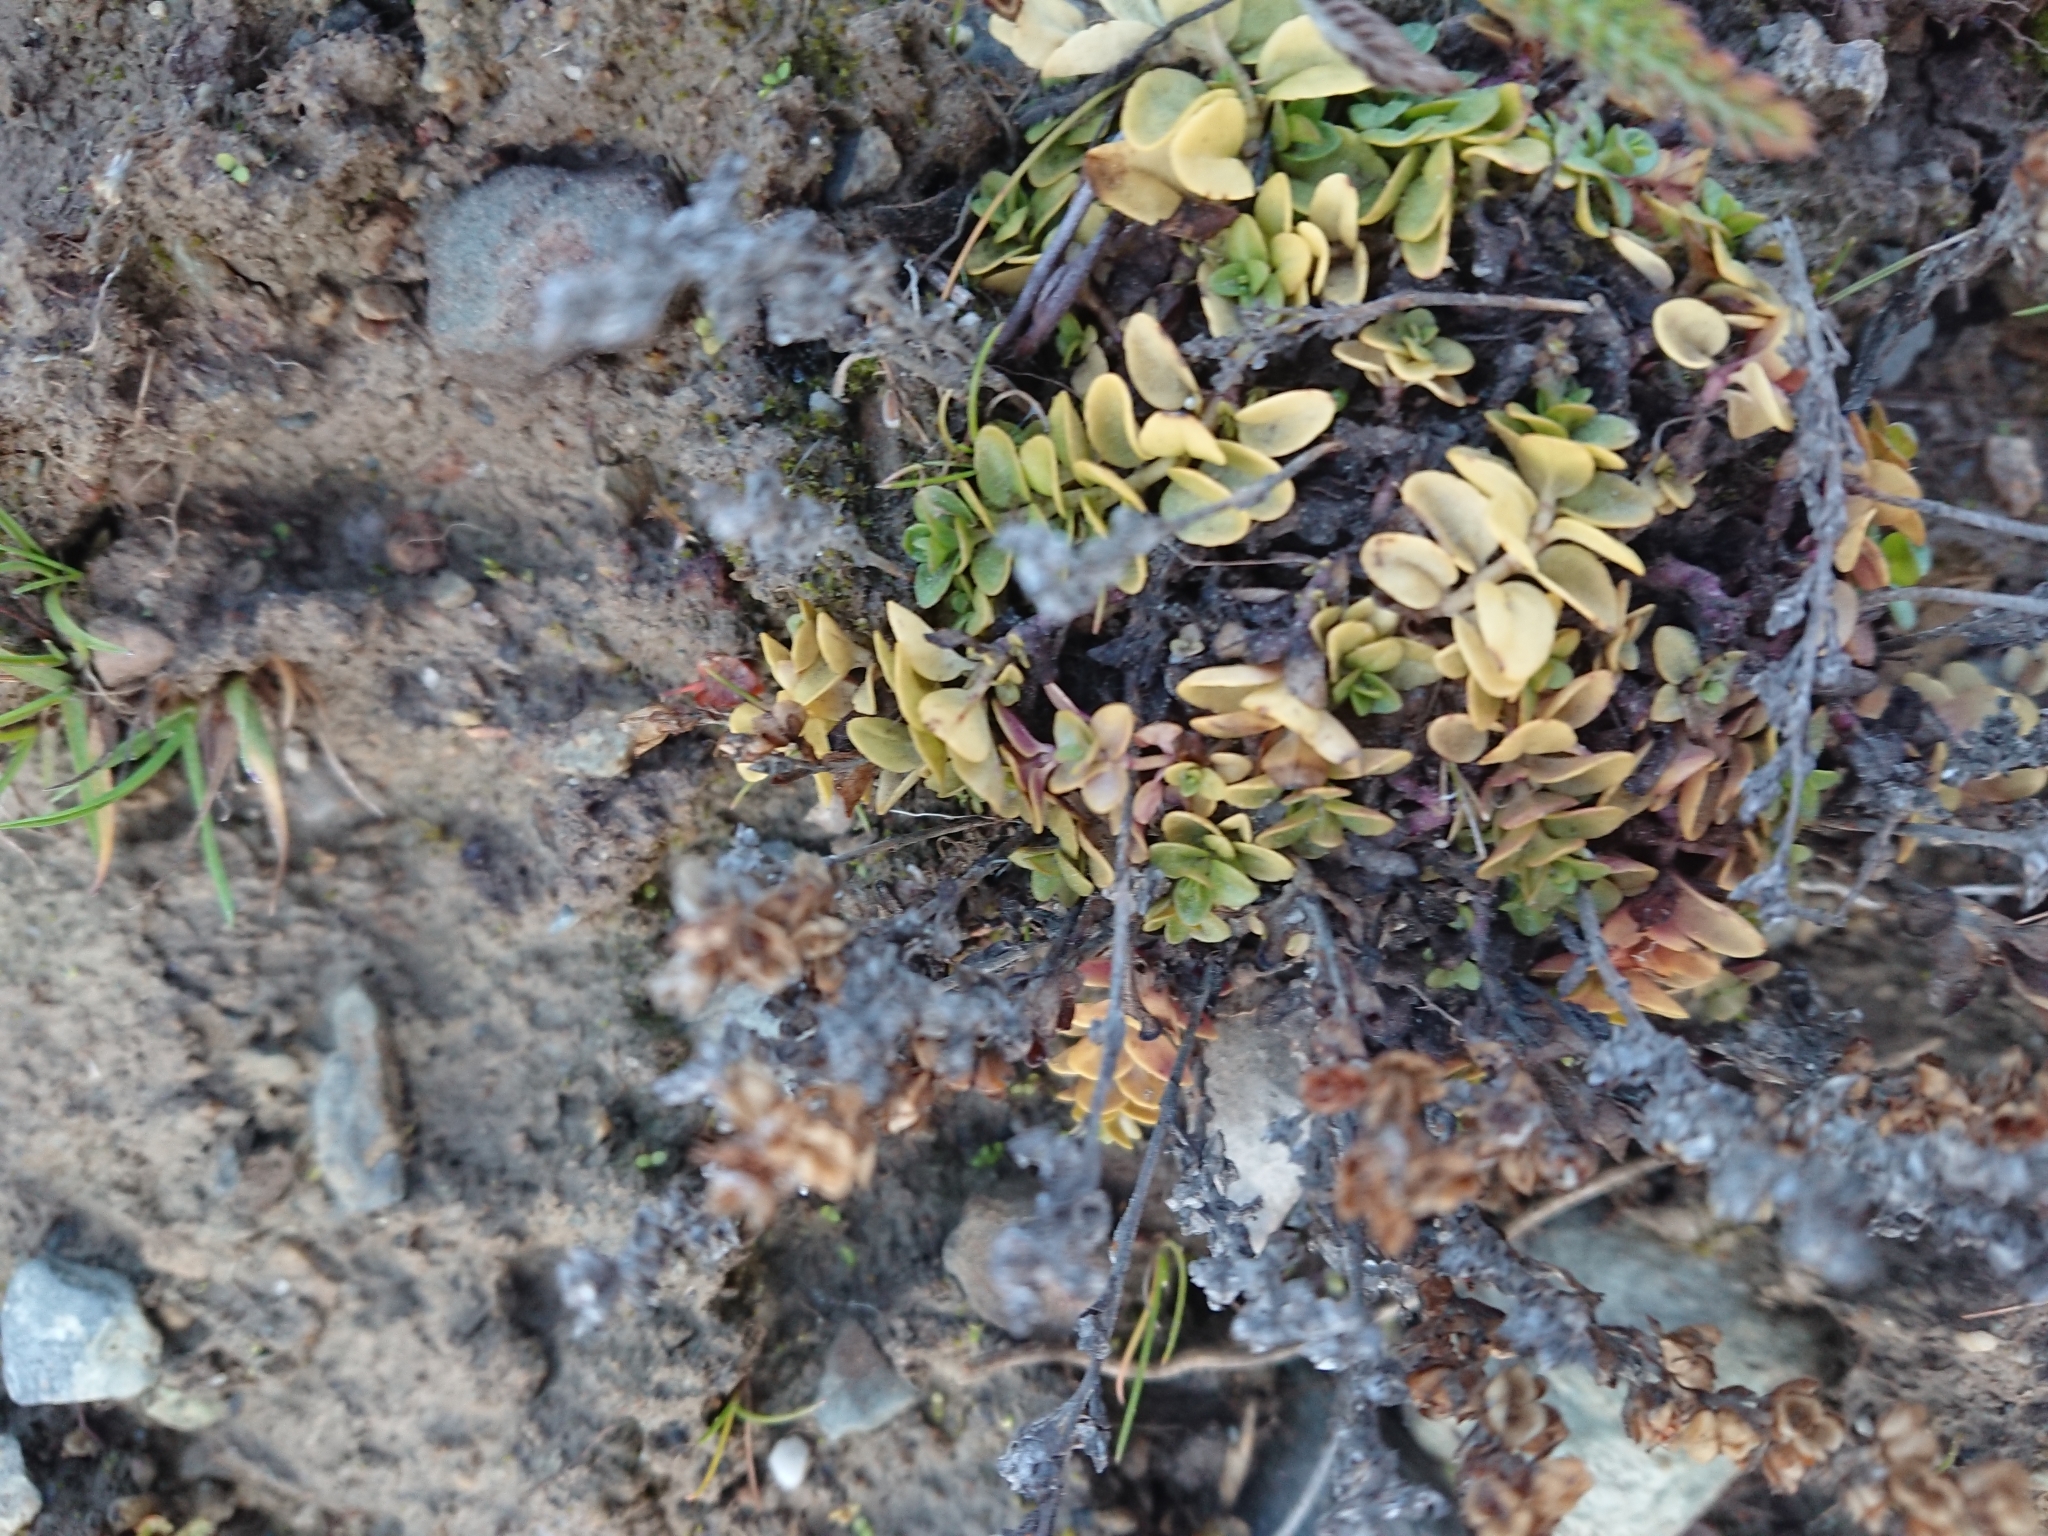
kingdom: Plantae
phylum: Tracheophyta
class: Magnoliopsida
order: Lamiales
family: Plantaginaceae
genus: Veronica
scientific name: Veronica serpyllifolia
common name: Thyme-leaved speedwell
